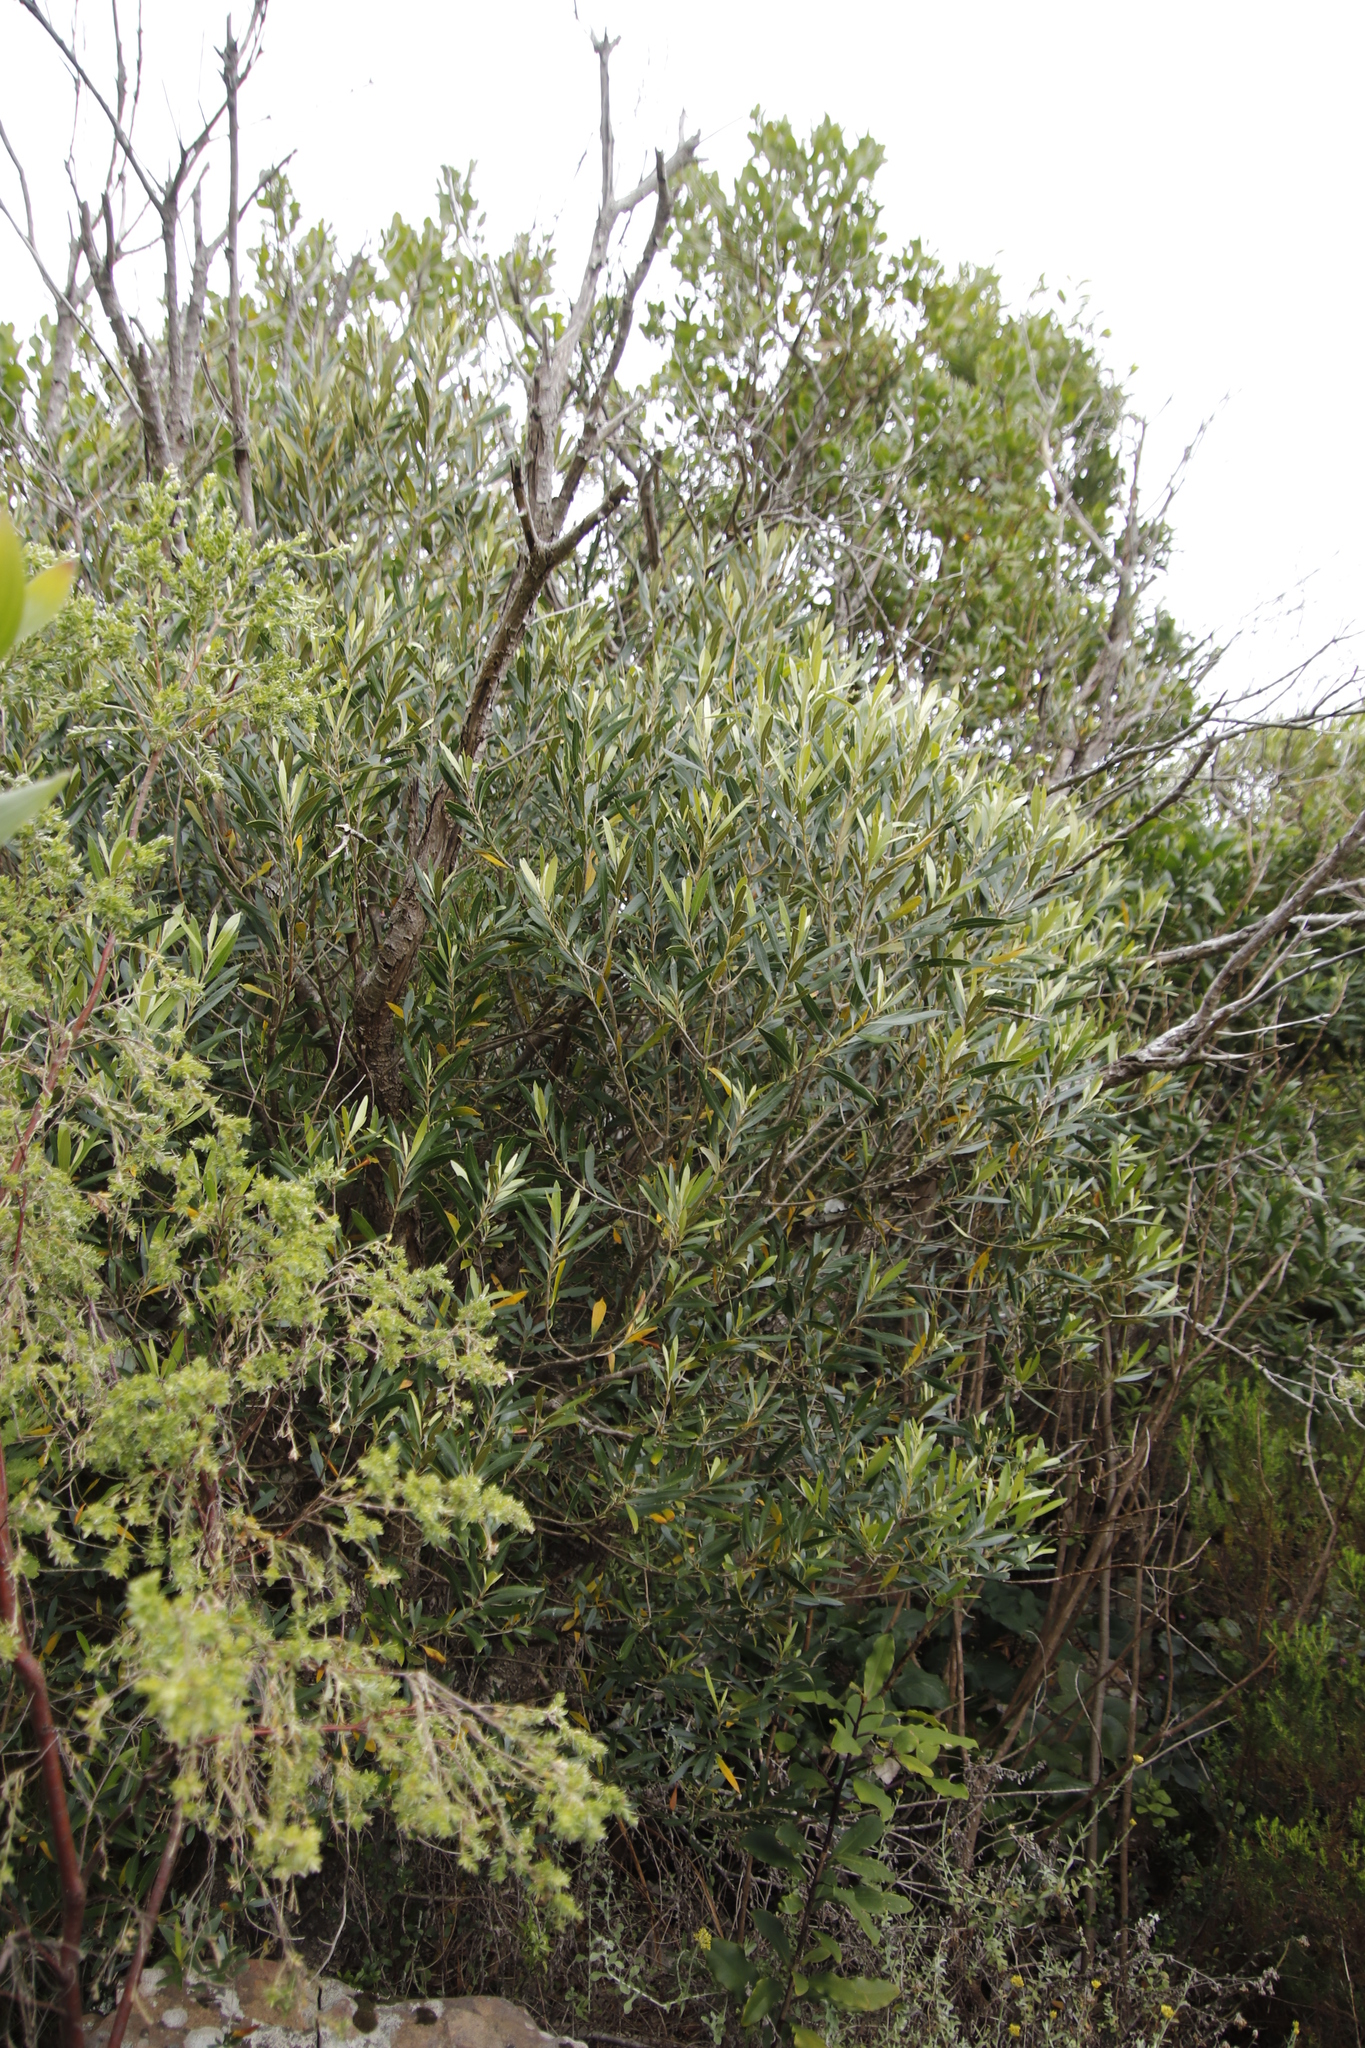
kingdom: Plantae
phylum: Tracheophyta
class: Magnoliopsida
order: Lamiales
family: Oleaceae
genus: Olea
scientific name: Olea europaea
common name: Olive
